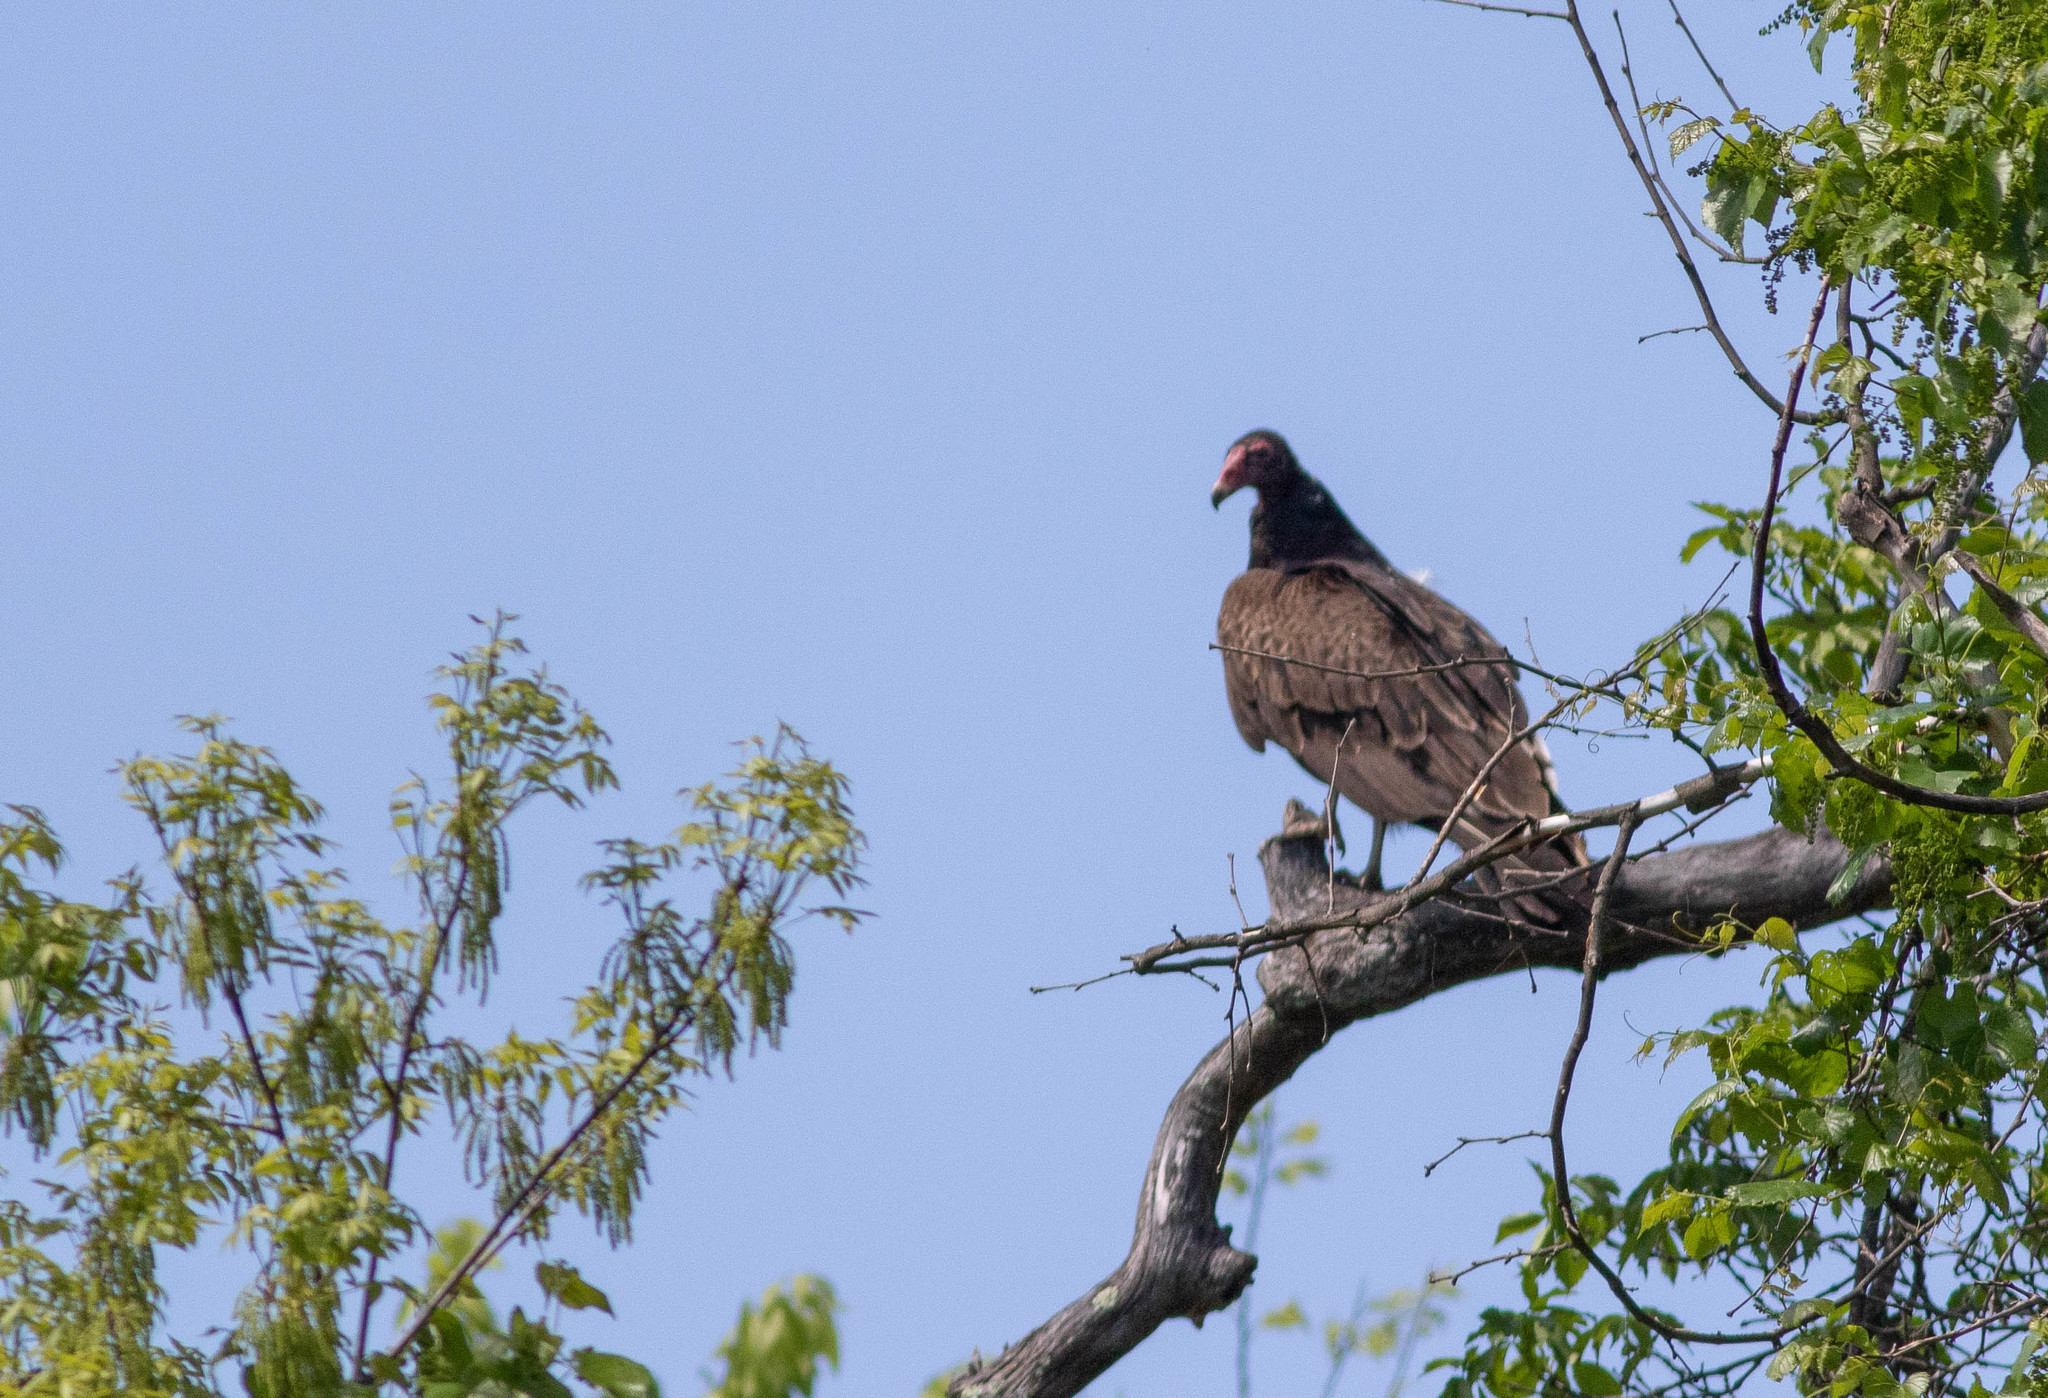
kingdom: Animalia
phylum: Chordata
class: Aves
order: Accipitriformes
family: Cathartidae
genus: Cathartes
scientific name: Cathartes aura
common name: Turkey vulture
